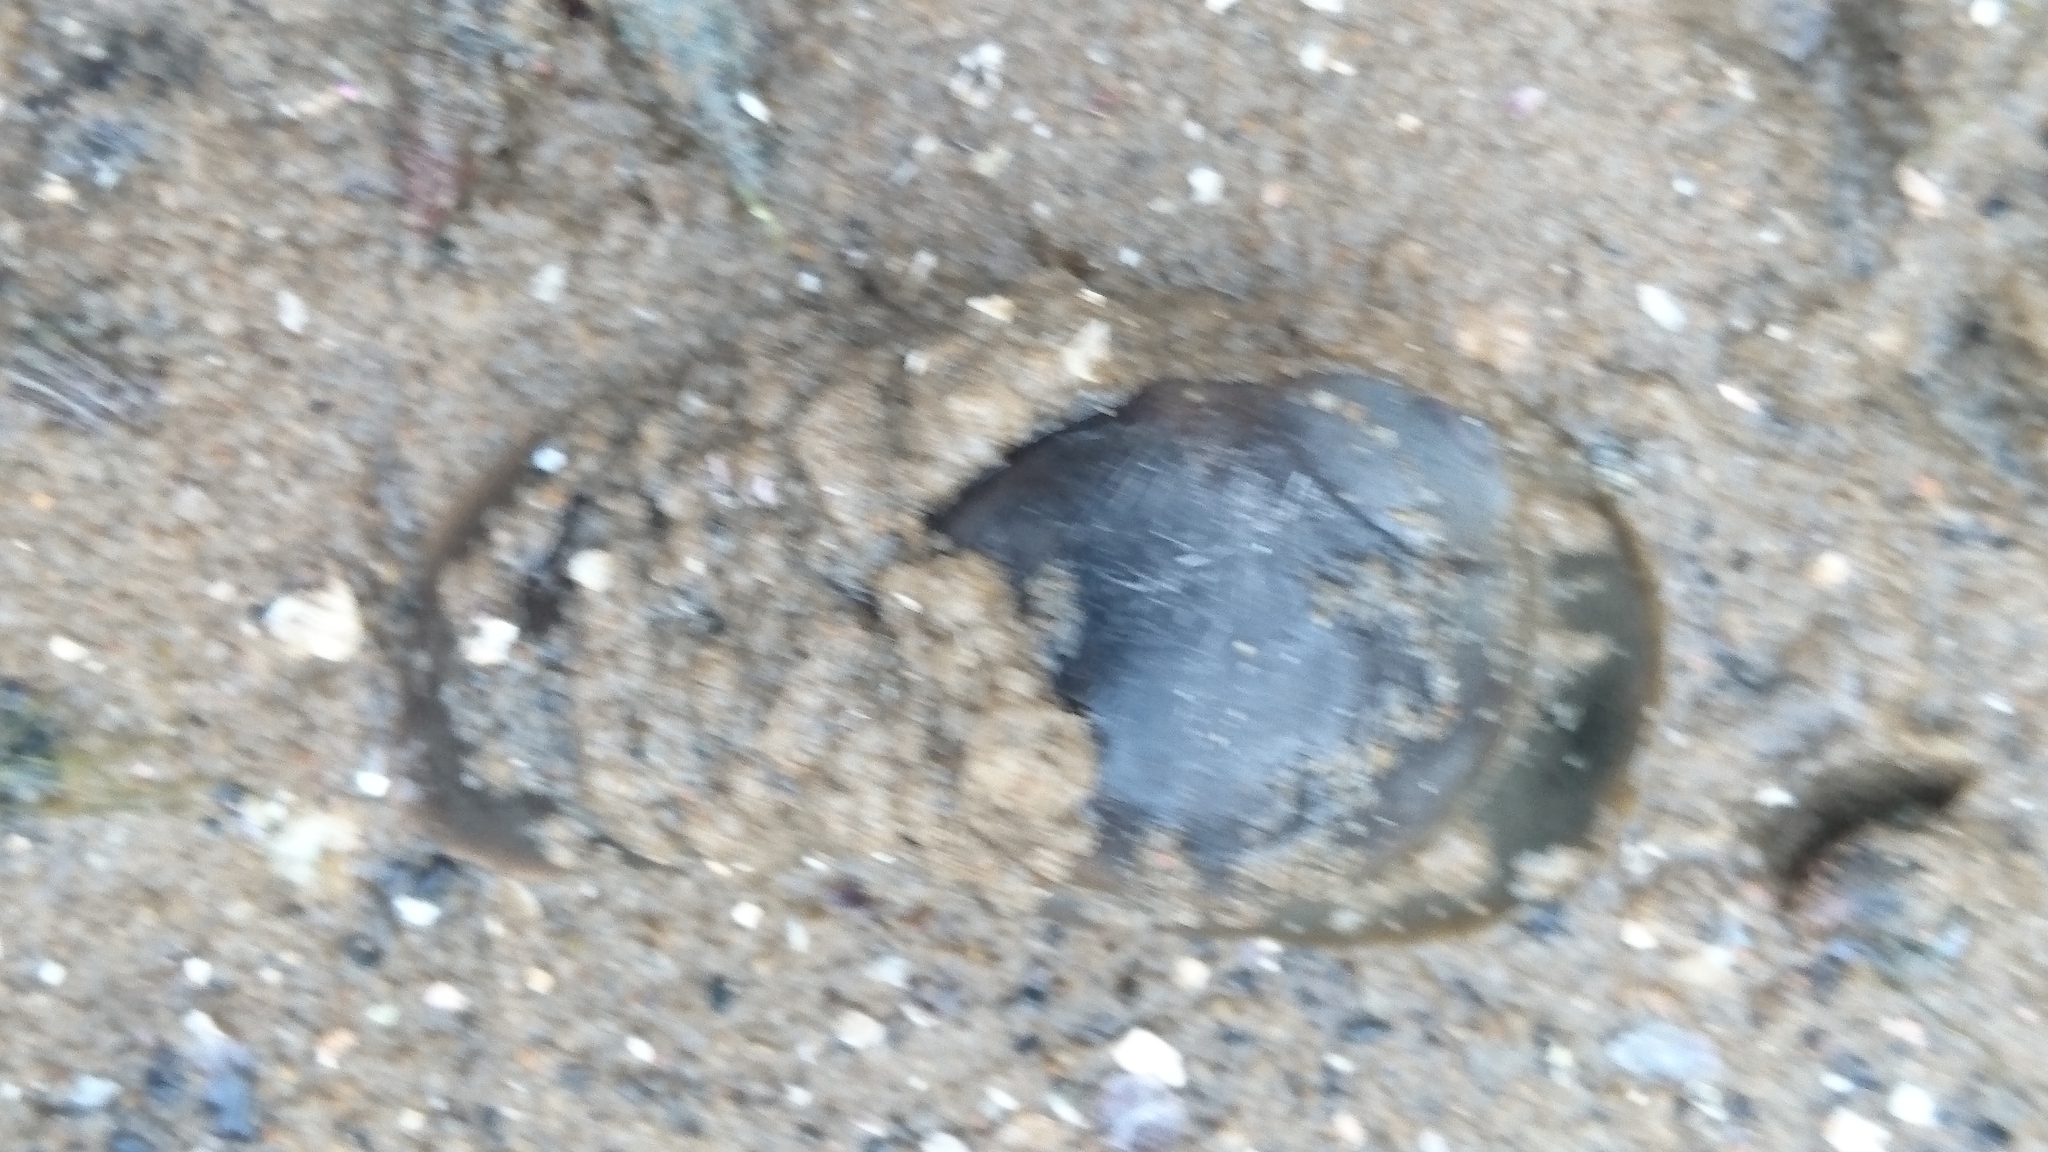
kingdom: Animalia
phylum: Mollusca
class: Gastropoda
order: Littorinimorpha
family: Naticidae
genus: Conuber
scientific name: Conuber sordidum
